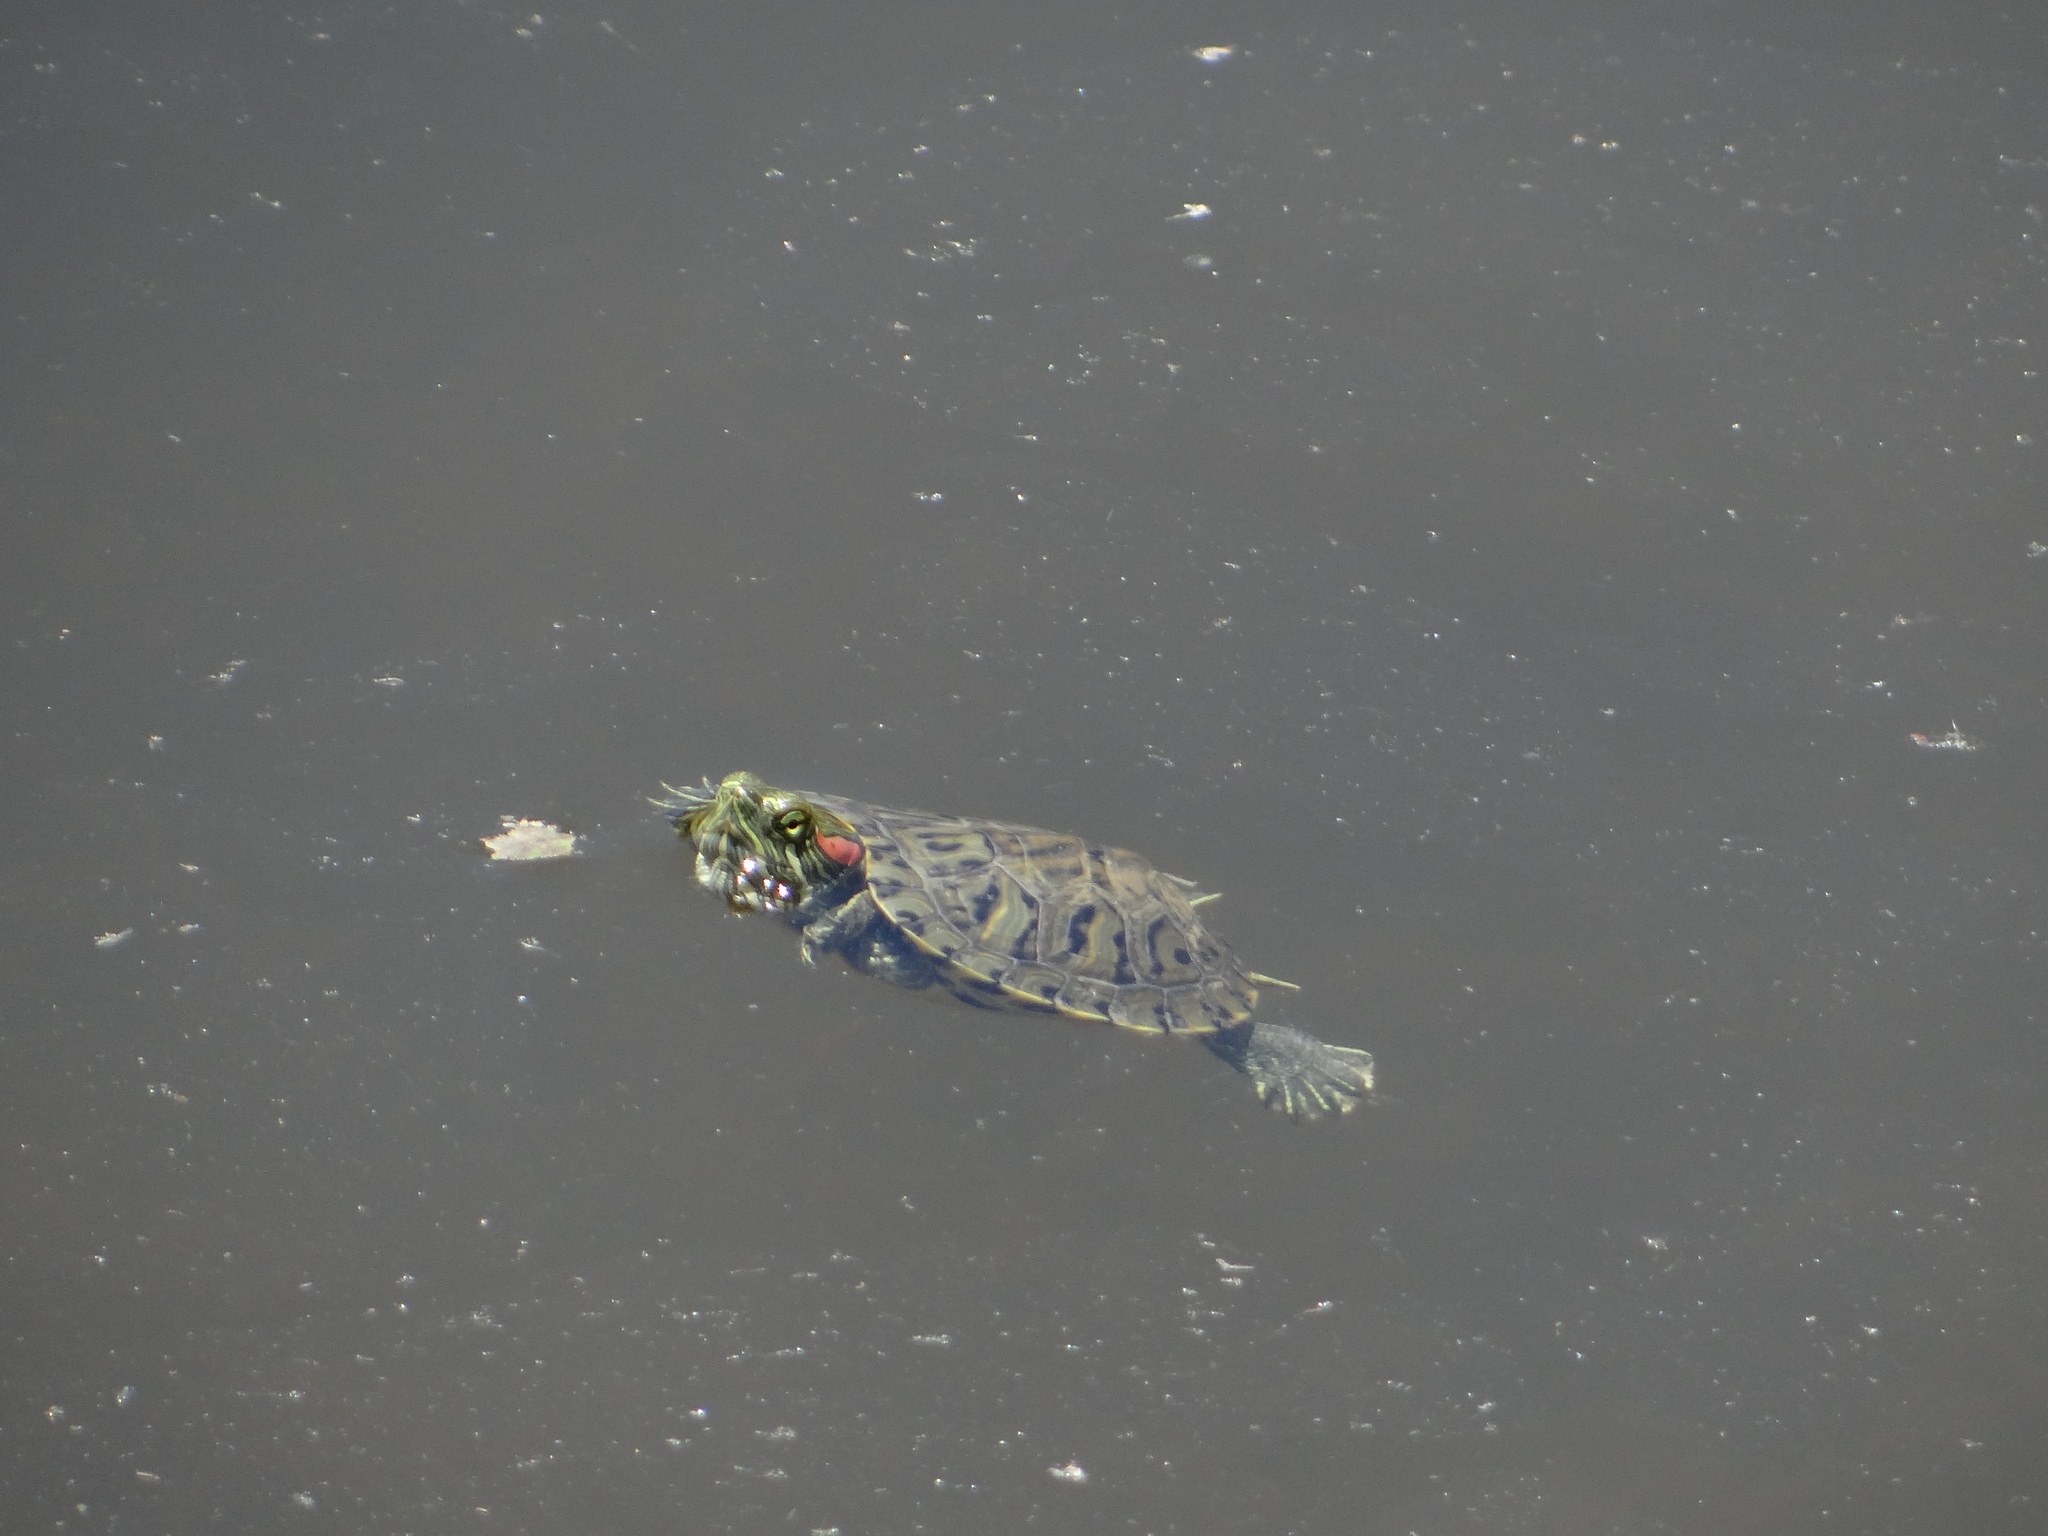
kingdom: Animalia
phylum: Chordata
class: Testudines
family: Emydidae
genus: Trachemys
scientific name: Trachemys scripta
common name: Slider
